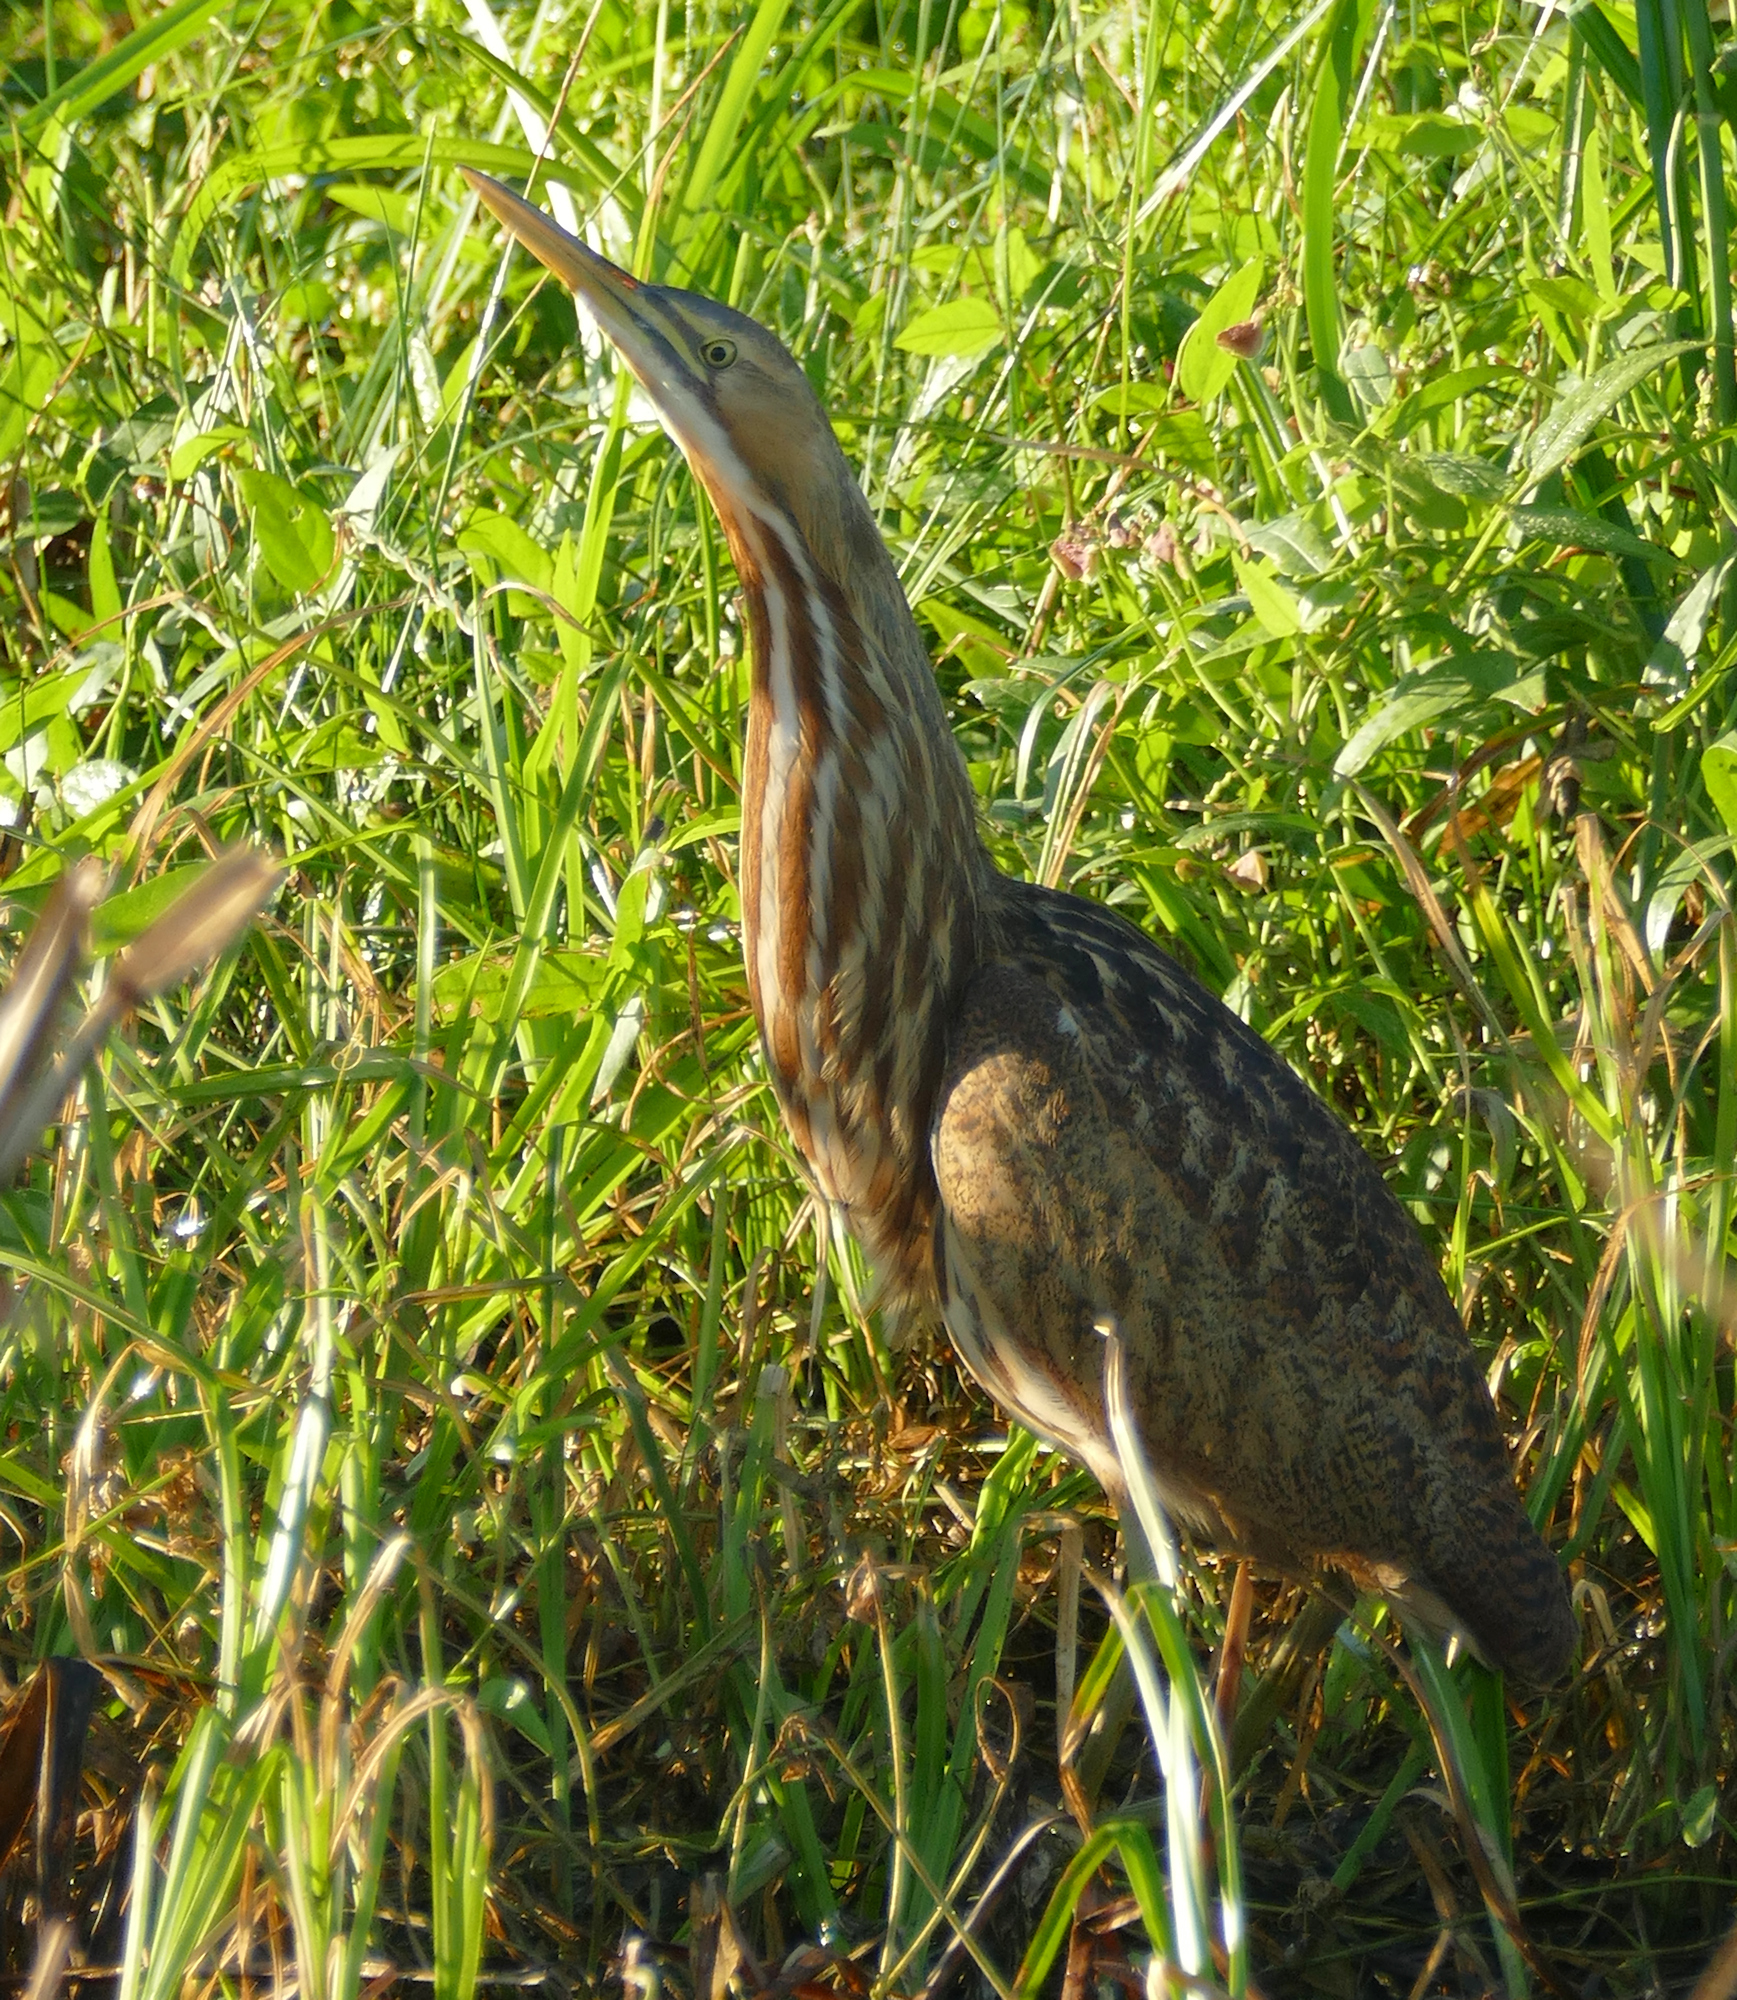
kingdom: Animalia
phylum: Chordata
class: Aves
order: Pelecaniformes
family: Ardeidae
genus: Botaurus
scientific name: Botaurus lentiginosus
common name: American bittern
